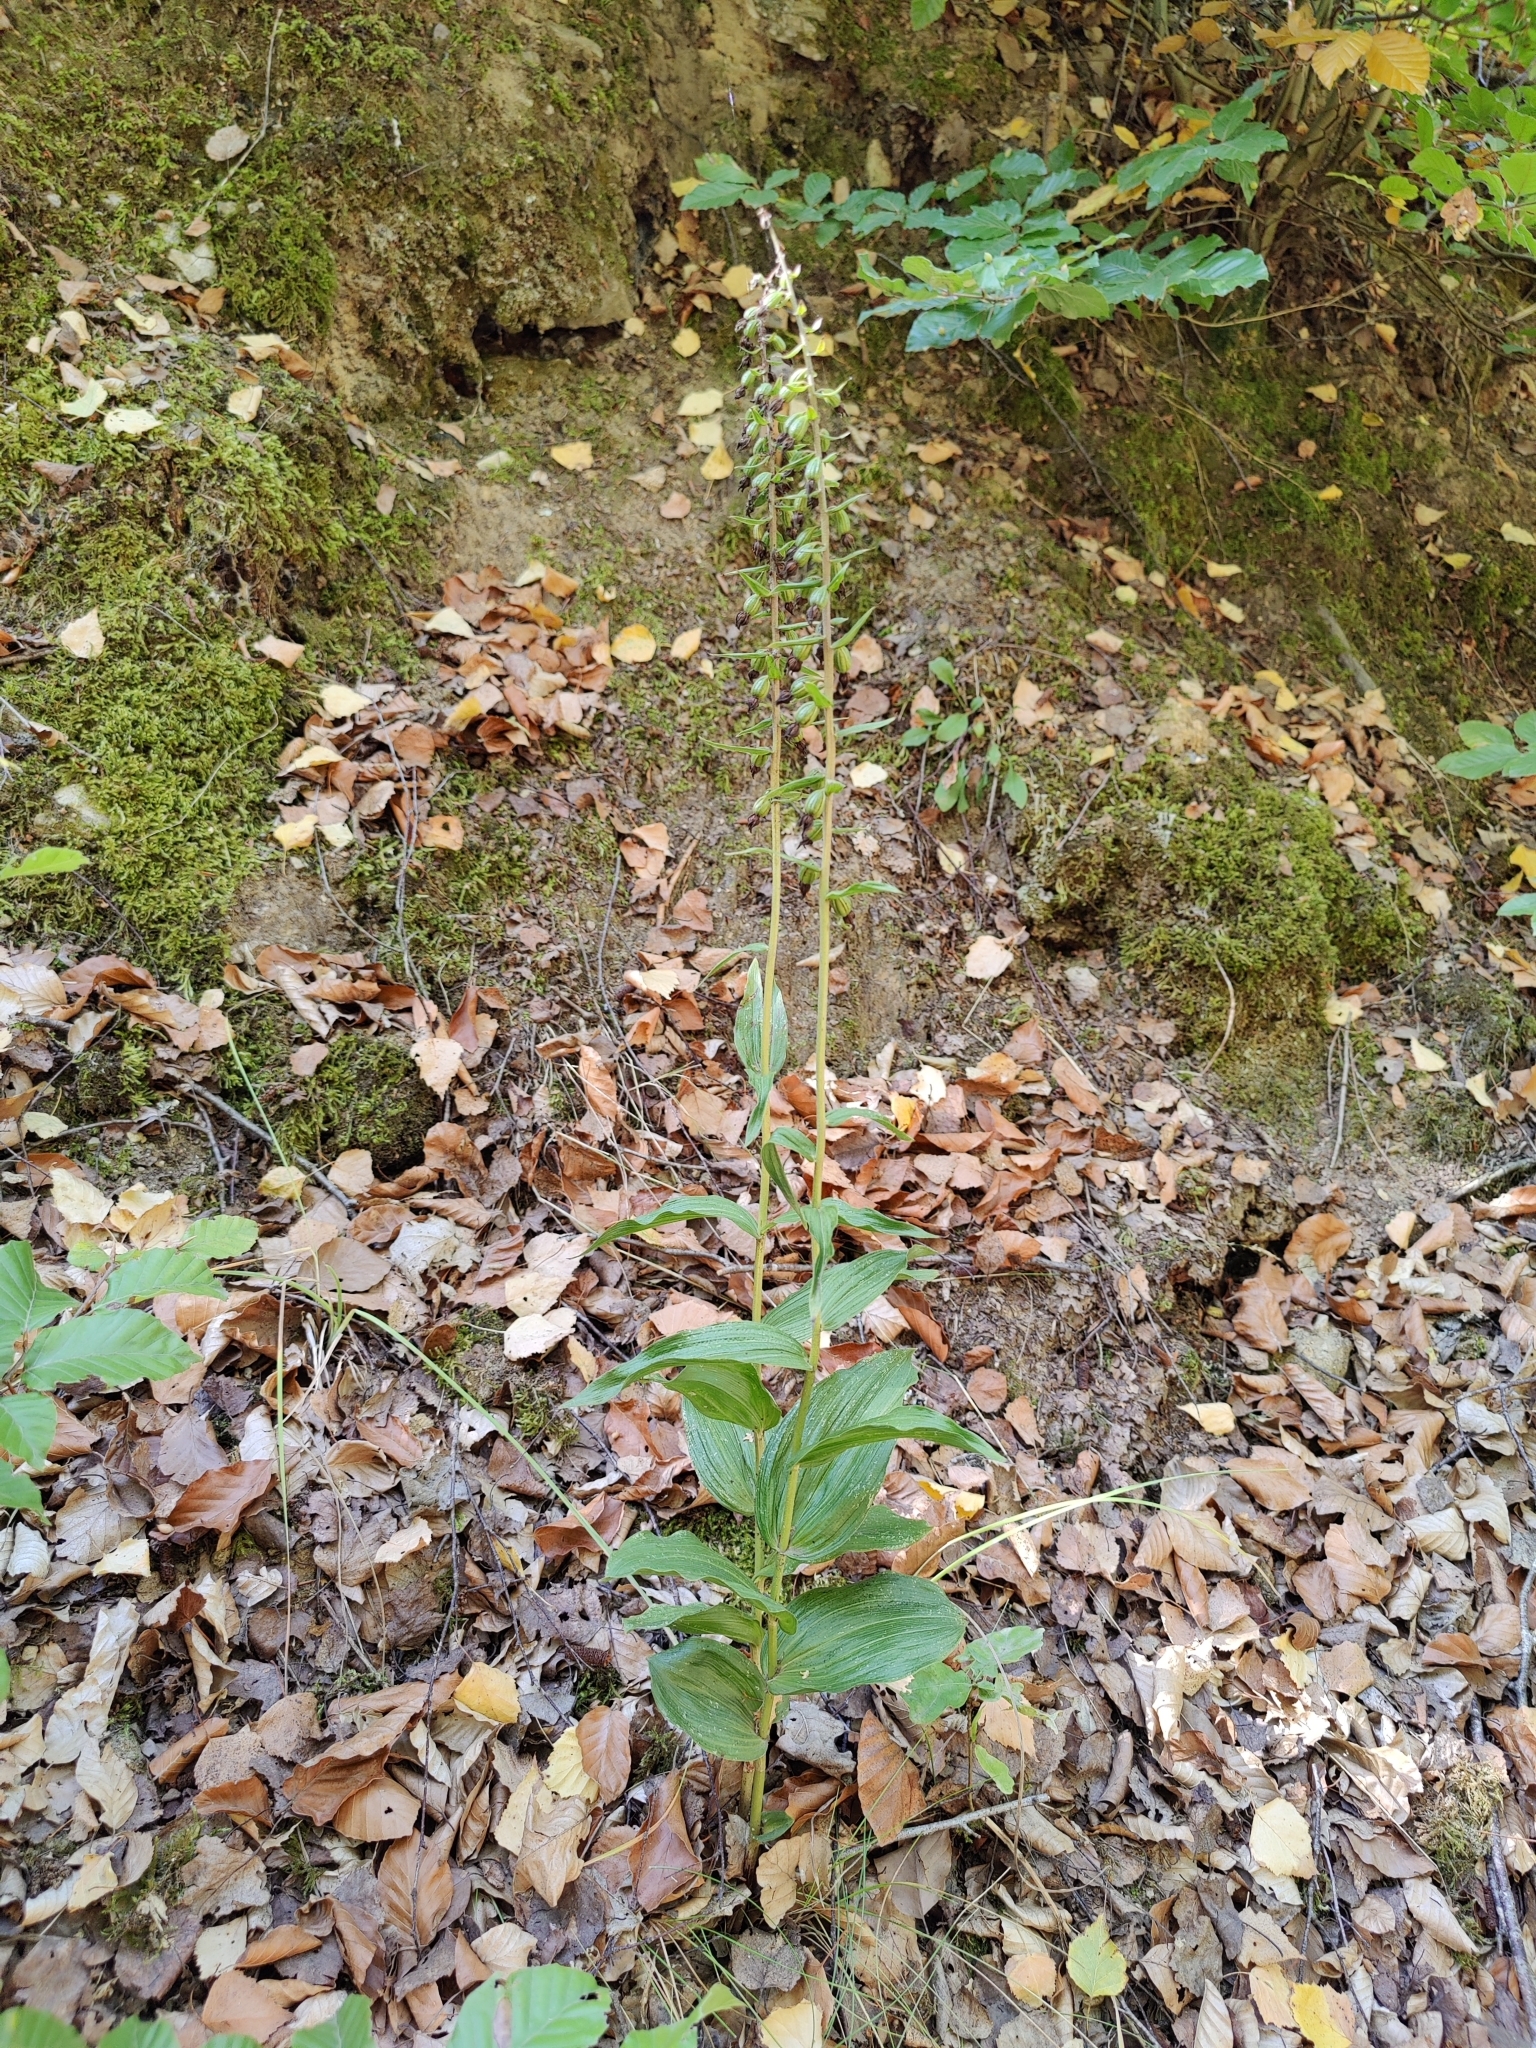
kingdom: Plantae
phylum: Tracheophyta
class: Liliopsida
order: Asparagales
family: Orchidaceae
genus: Epipactis
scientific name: Epipactis helleborine
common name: Broad-leaved helleborine
